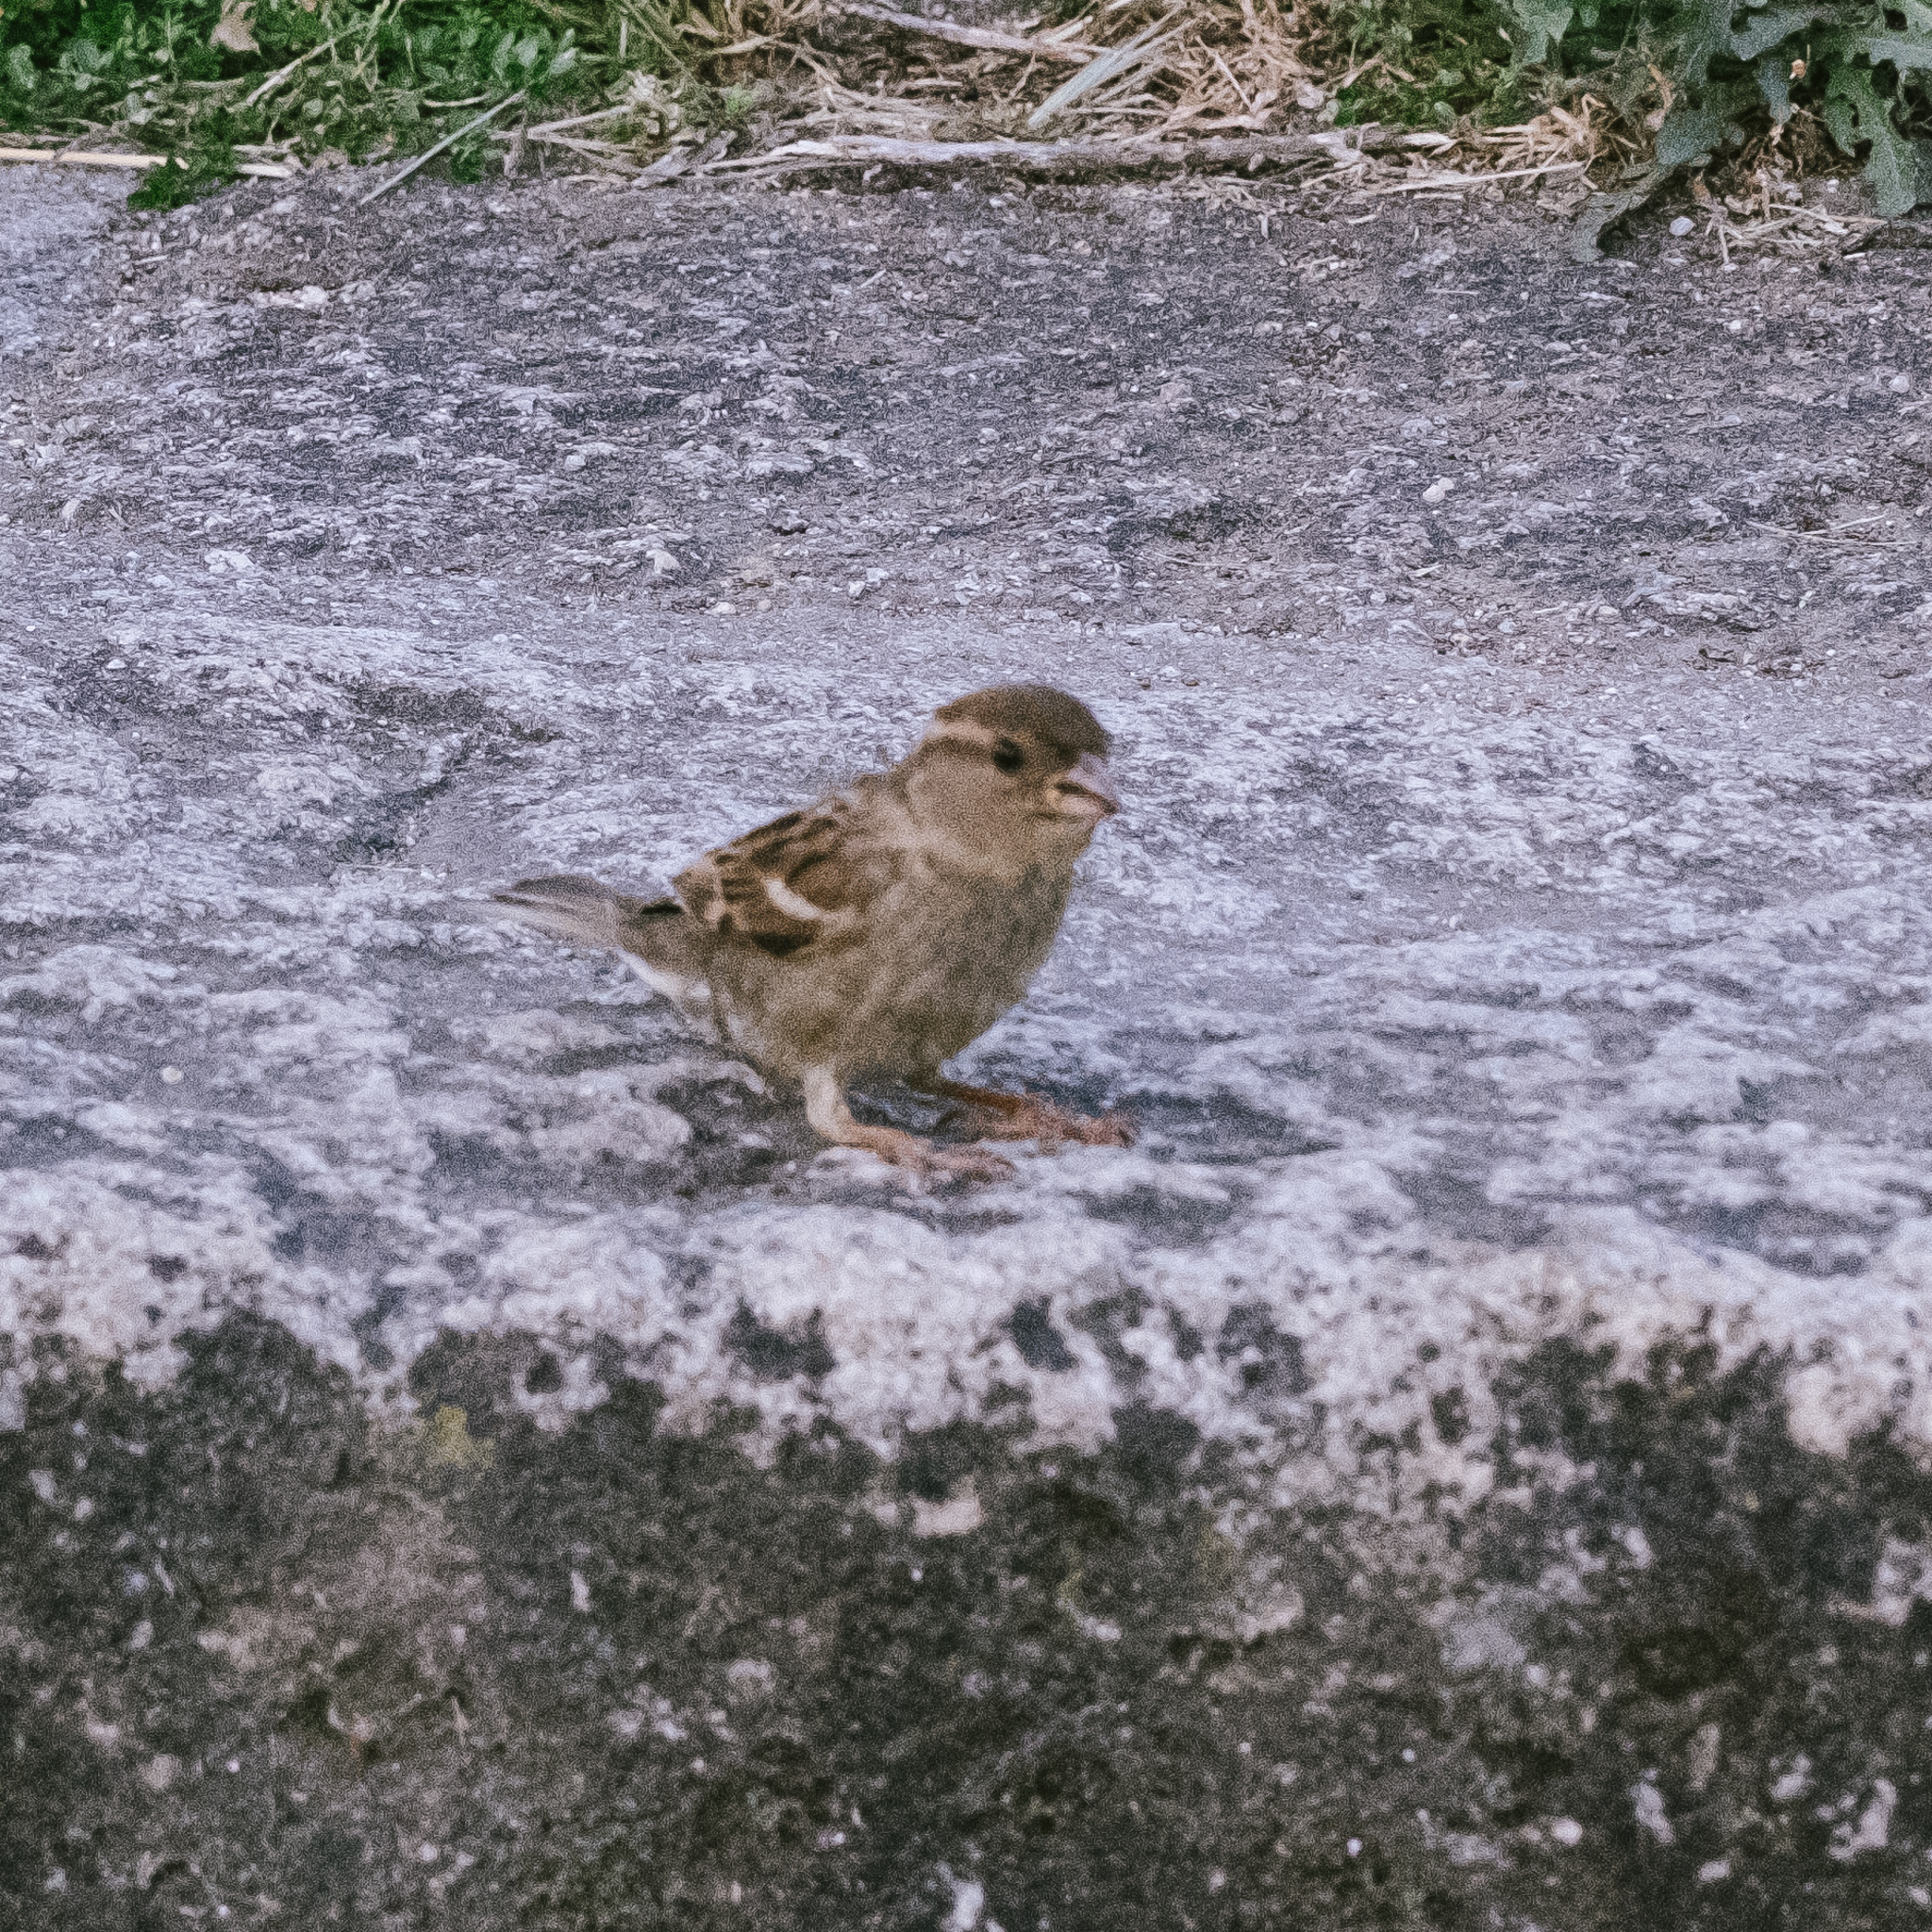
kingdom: Animalia
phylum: Chordata
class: Aves
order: Passeriformes
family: Passeridae
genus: Passer
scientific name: Passer domesticus
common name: House sparrow
